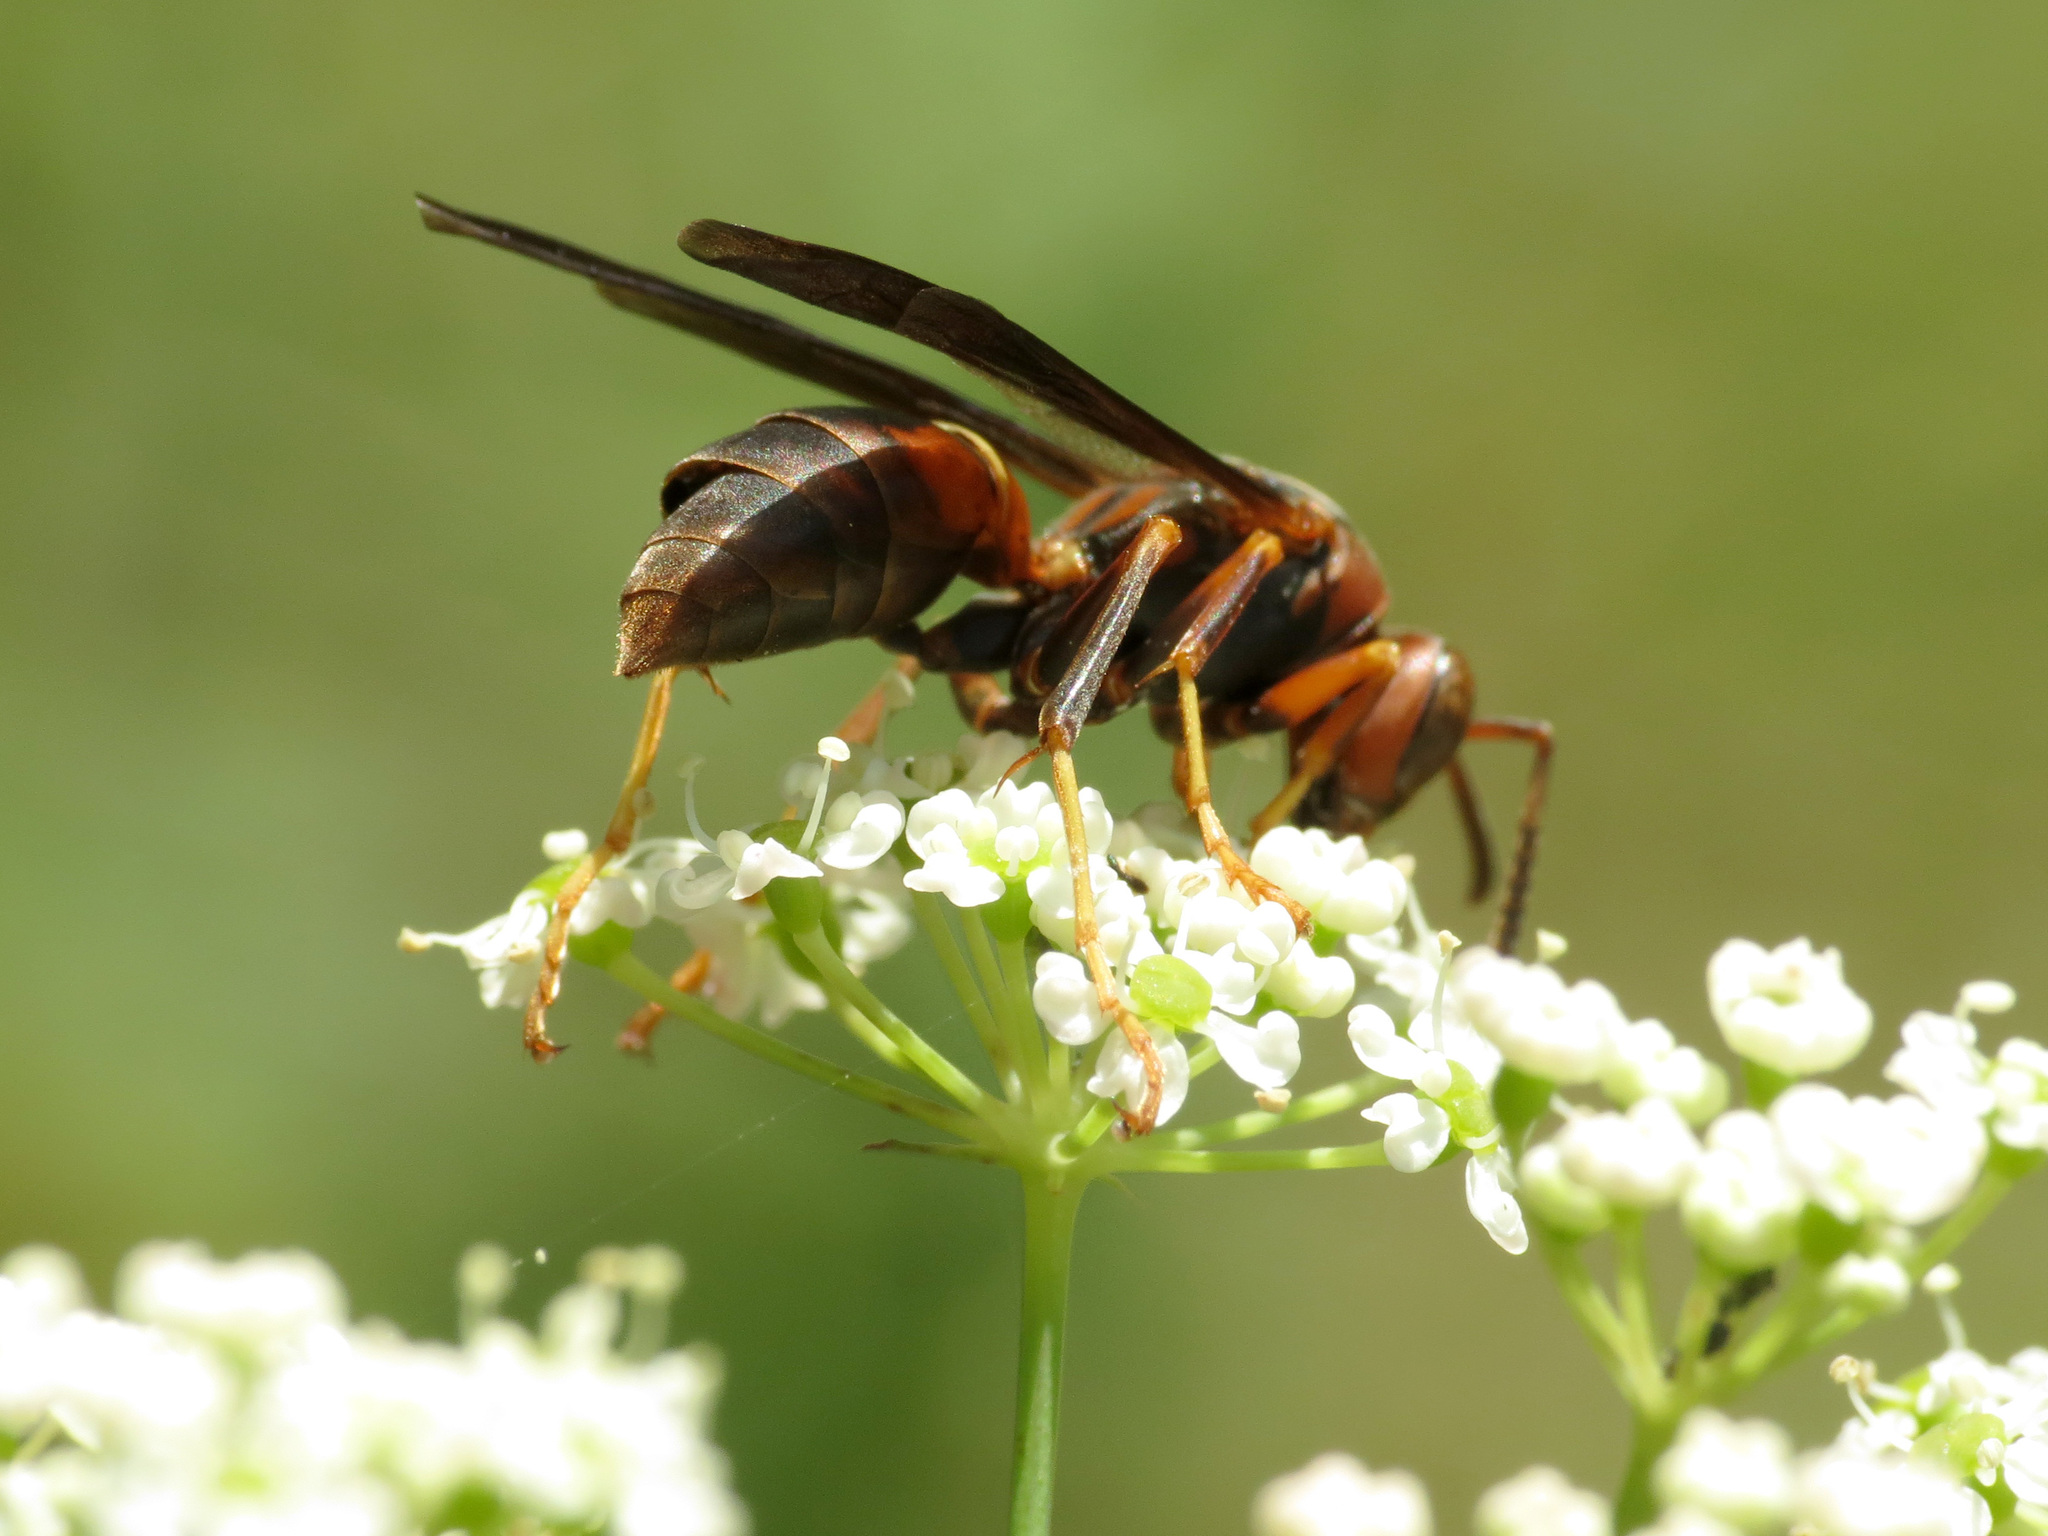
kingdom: Animalia
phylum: Arthropoda
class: Insecta
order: Hymenoptera
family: Eumenidae
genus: Polistes
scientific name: Polistes fuscatus
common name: Dark paper wasp
